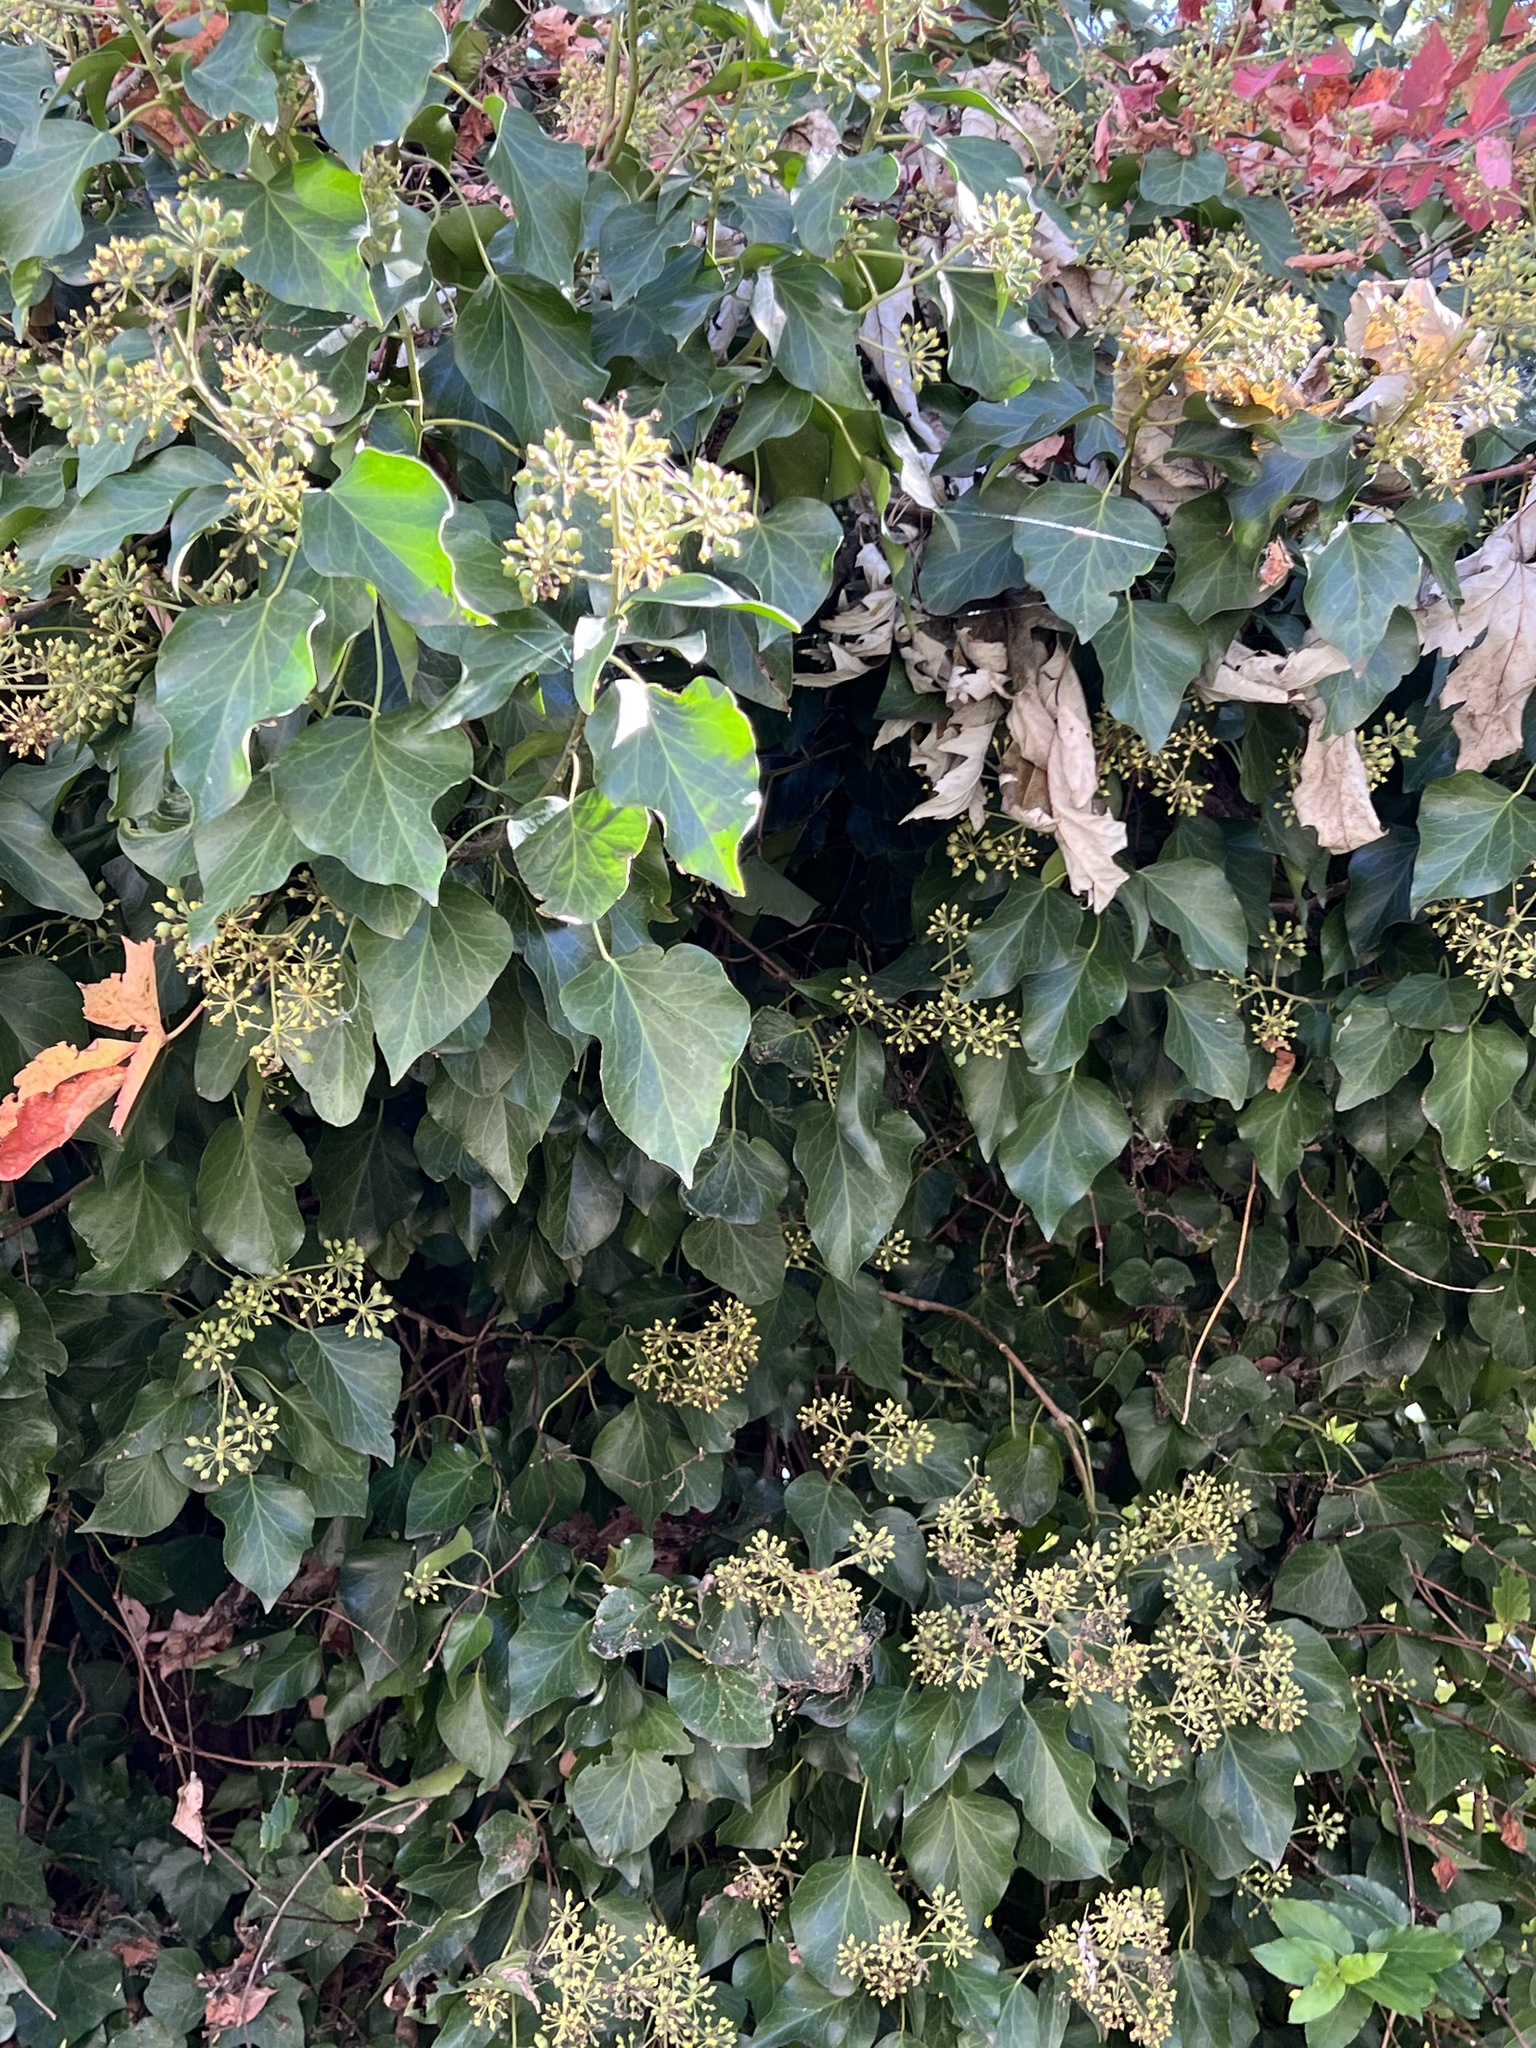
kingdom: Plantae
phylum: Tracheophyta
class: Magnoliopsida
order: Apiales
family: Araliaceae
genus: Hedera
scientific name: Hedera helix
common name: Ivy
